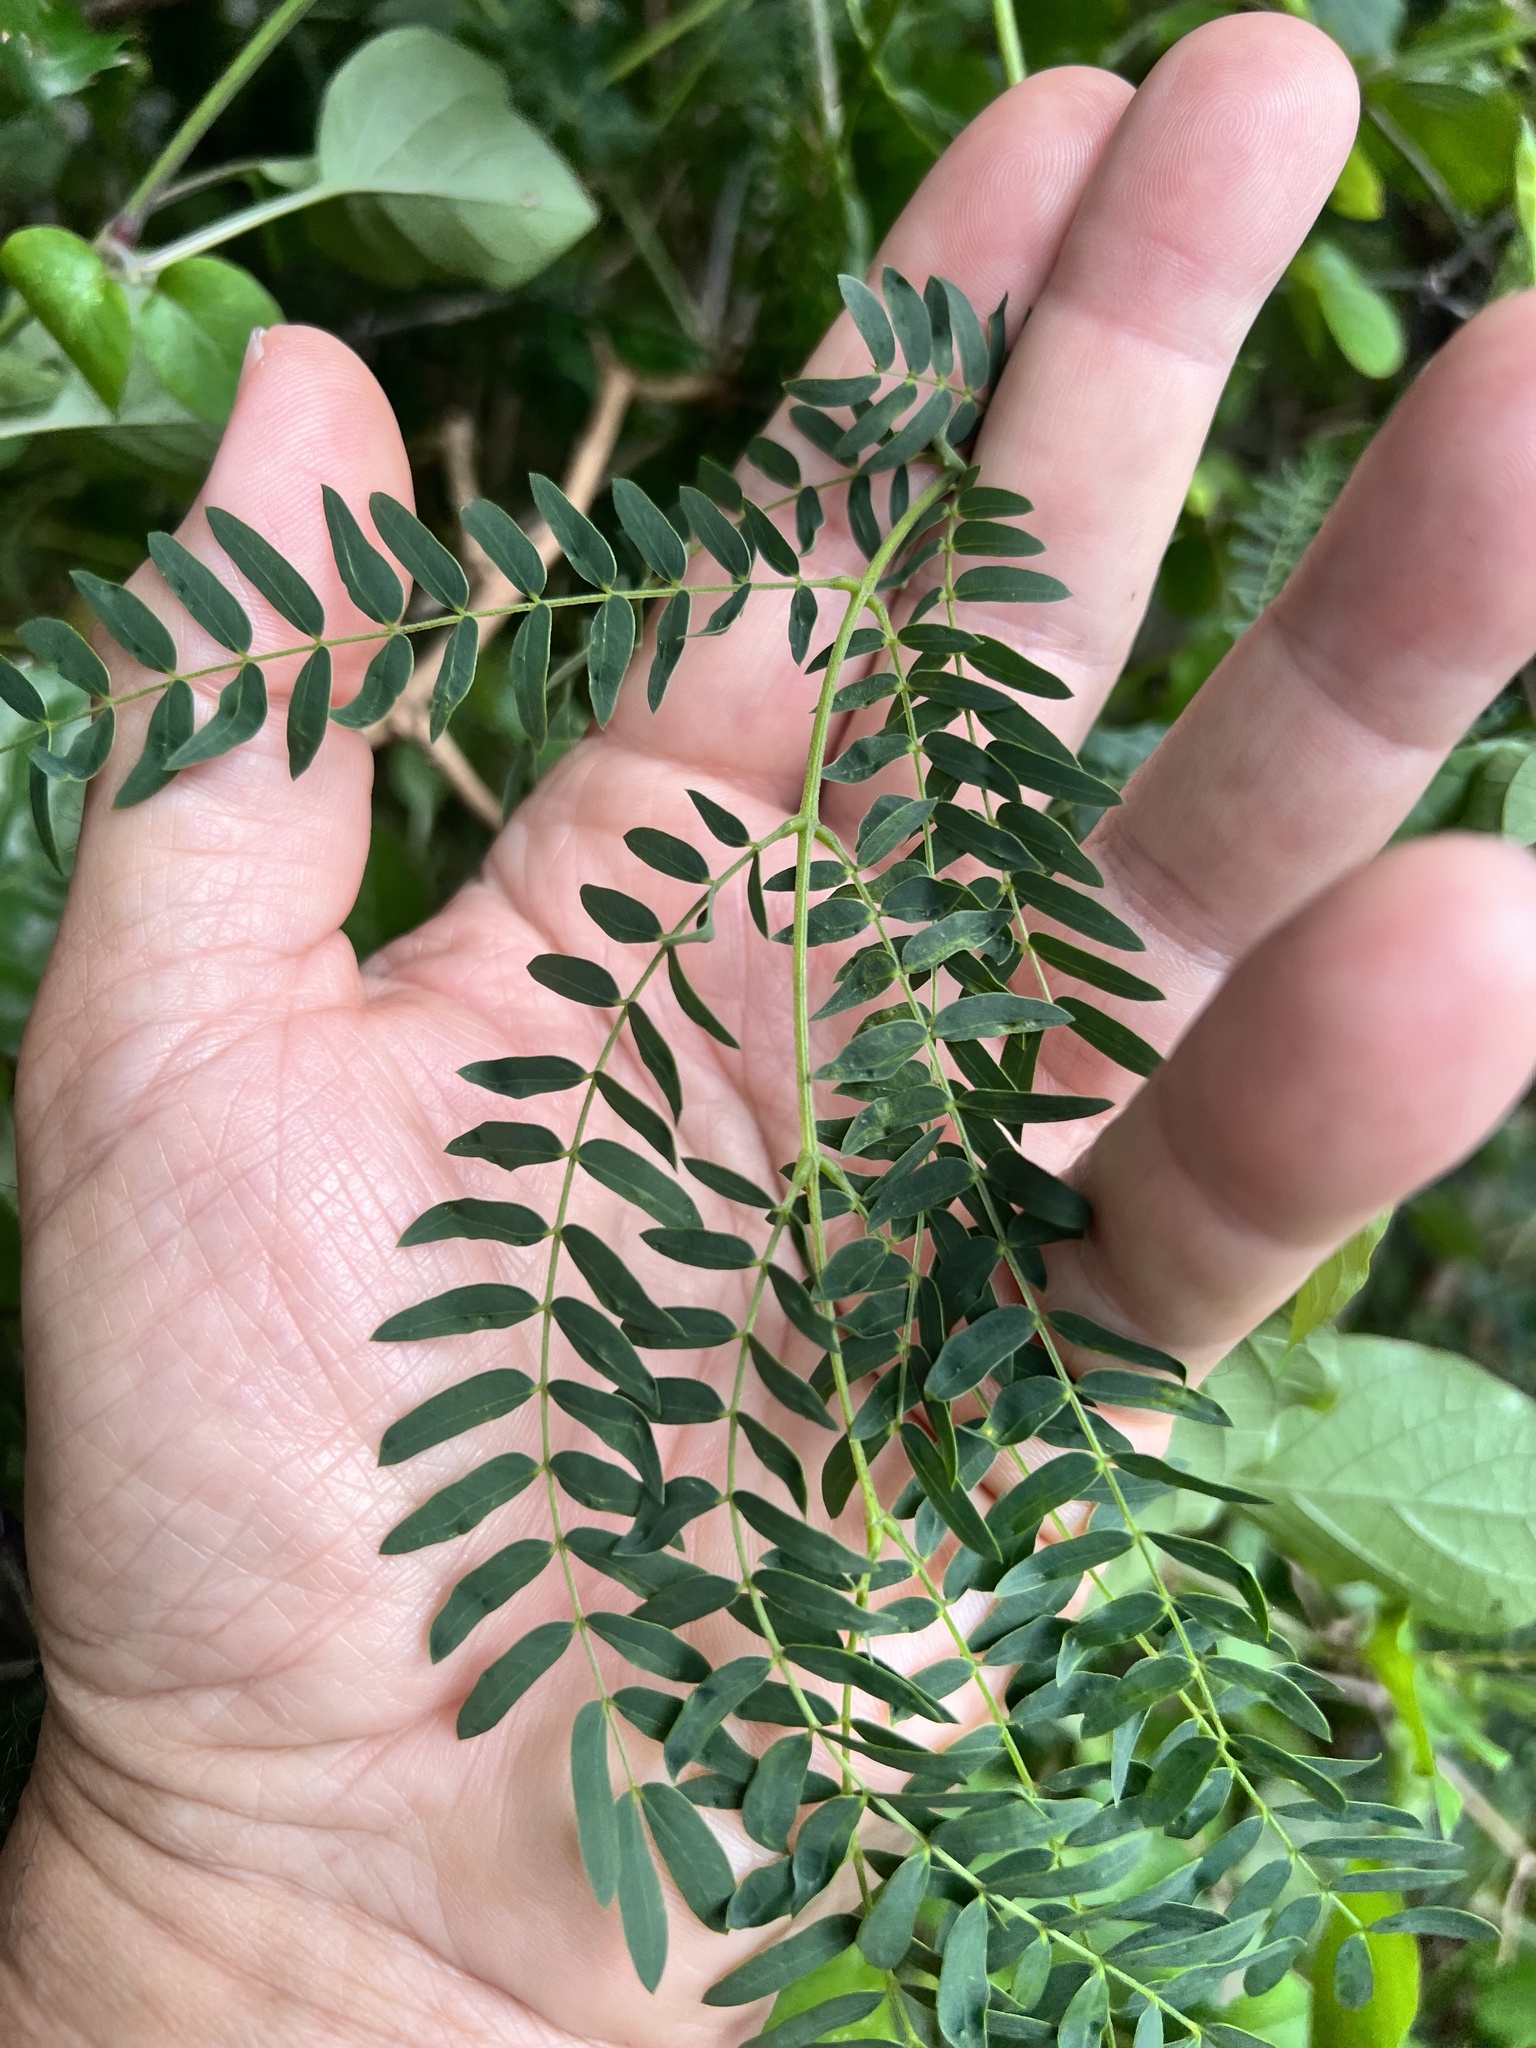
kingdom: Plantae
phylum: Tracheophyta
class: Magnoliopsida
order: Fabales
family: Fabaceae
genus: Leucaena
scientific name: Leucaena leucocephala
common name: White leadtree
